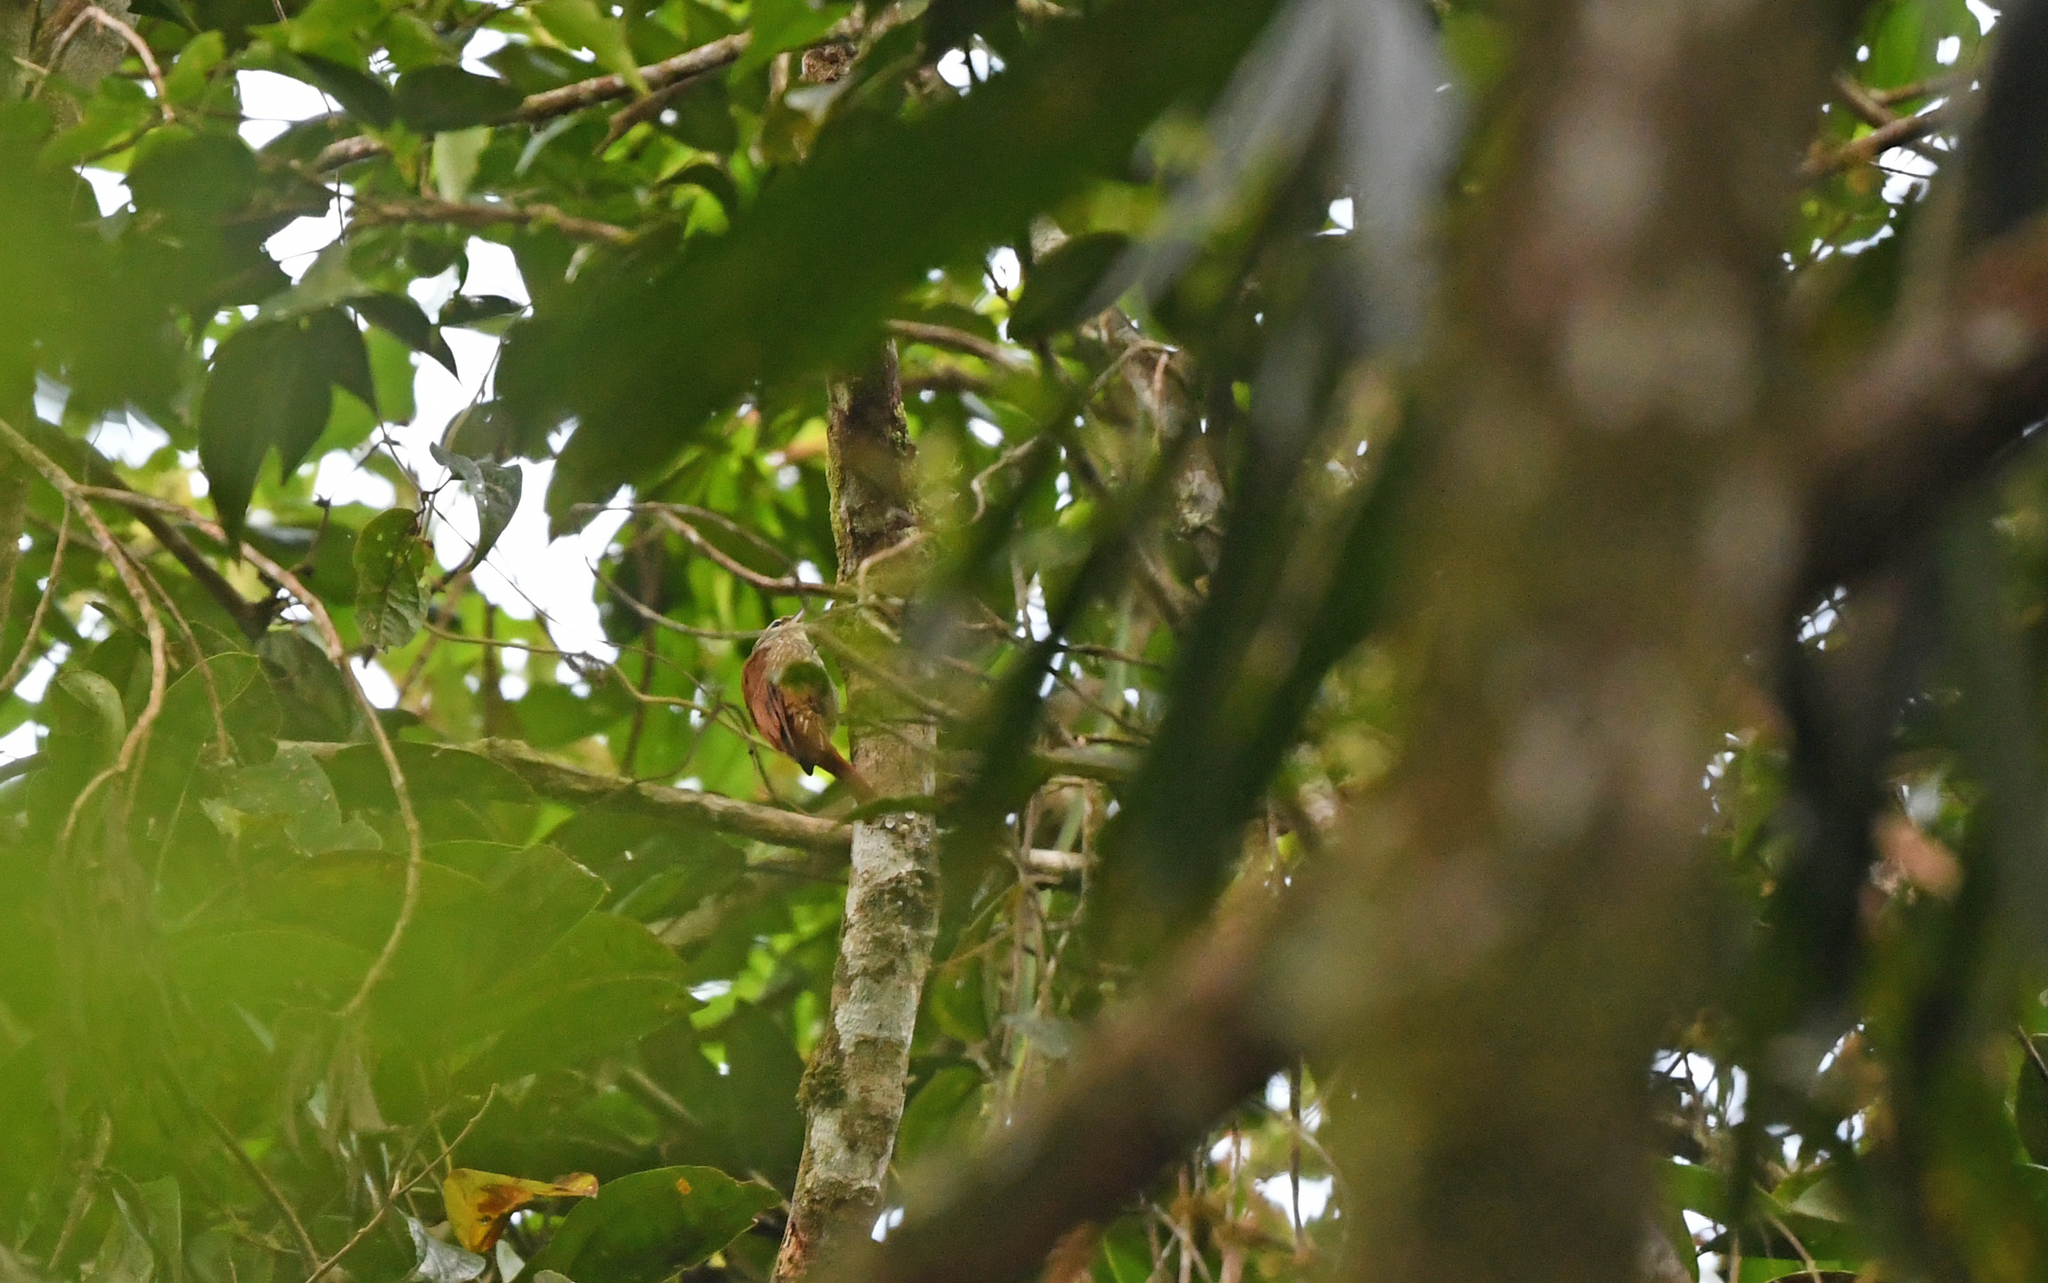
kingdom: Animalia
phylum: Chordata
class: Aves
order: Passeriformes
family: Furnariidae
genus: Premnornis
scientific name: Premnornis guttuliger
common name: Rusty-winged barbtail
